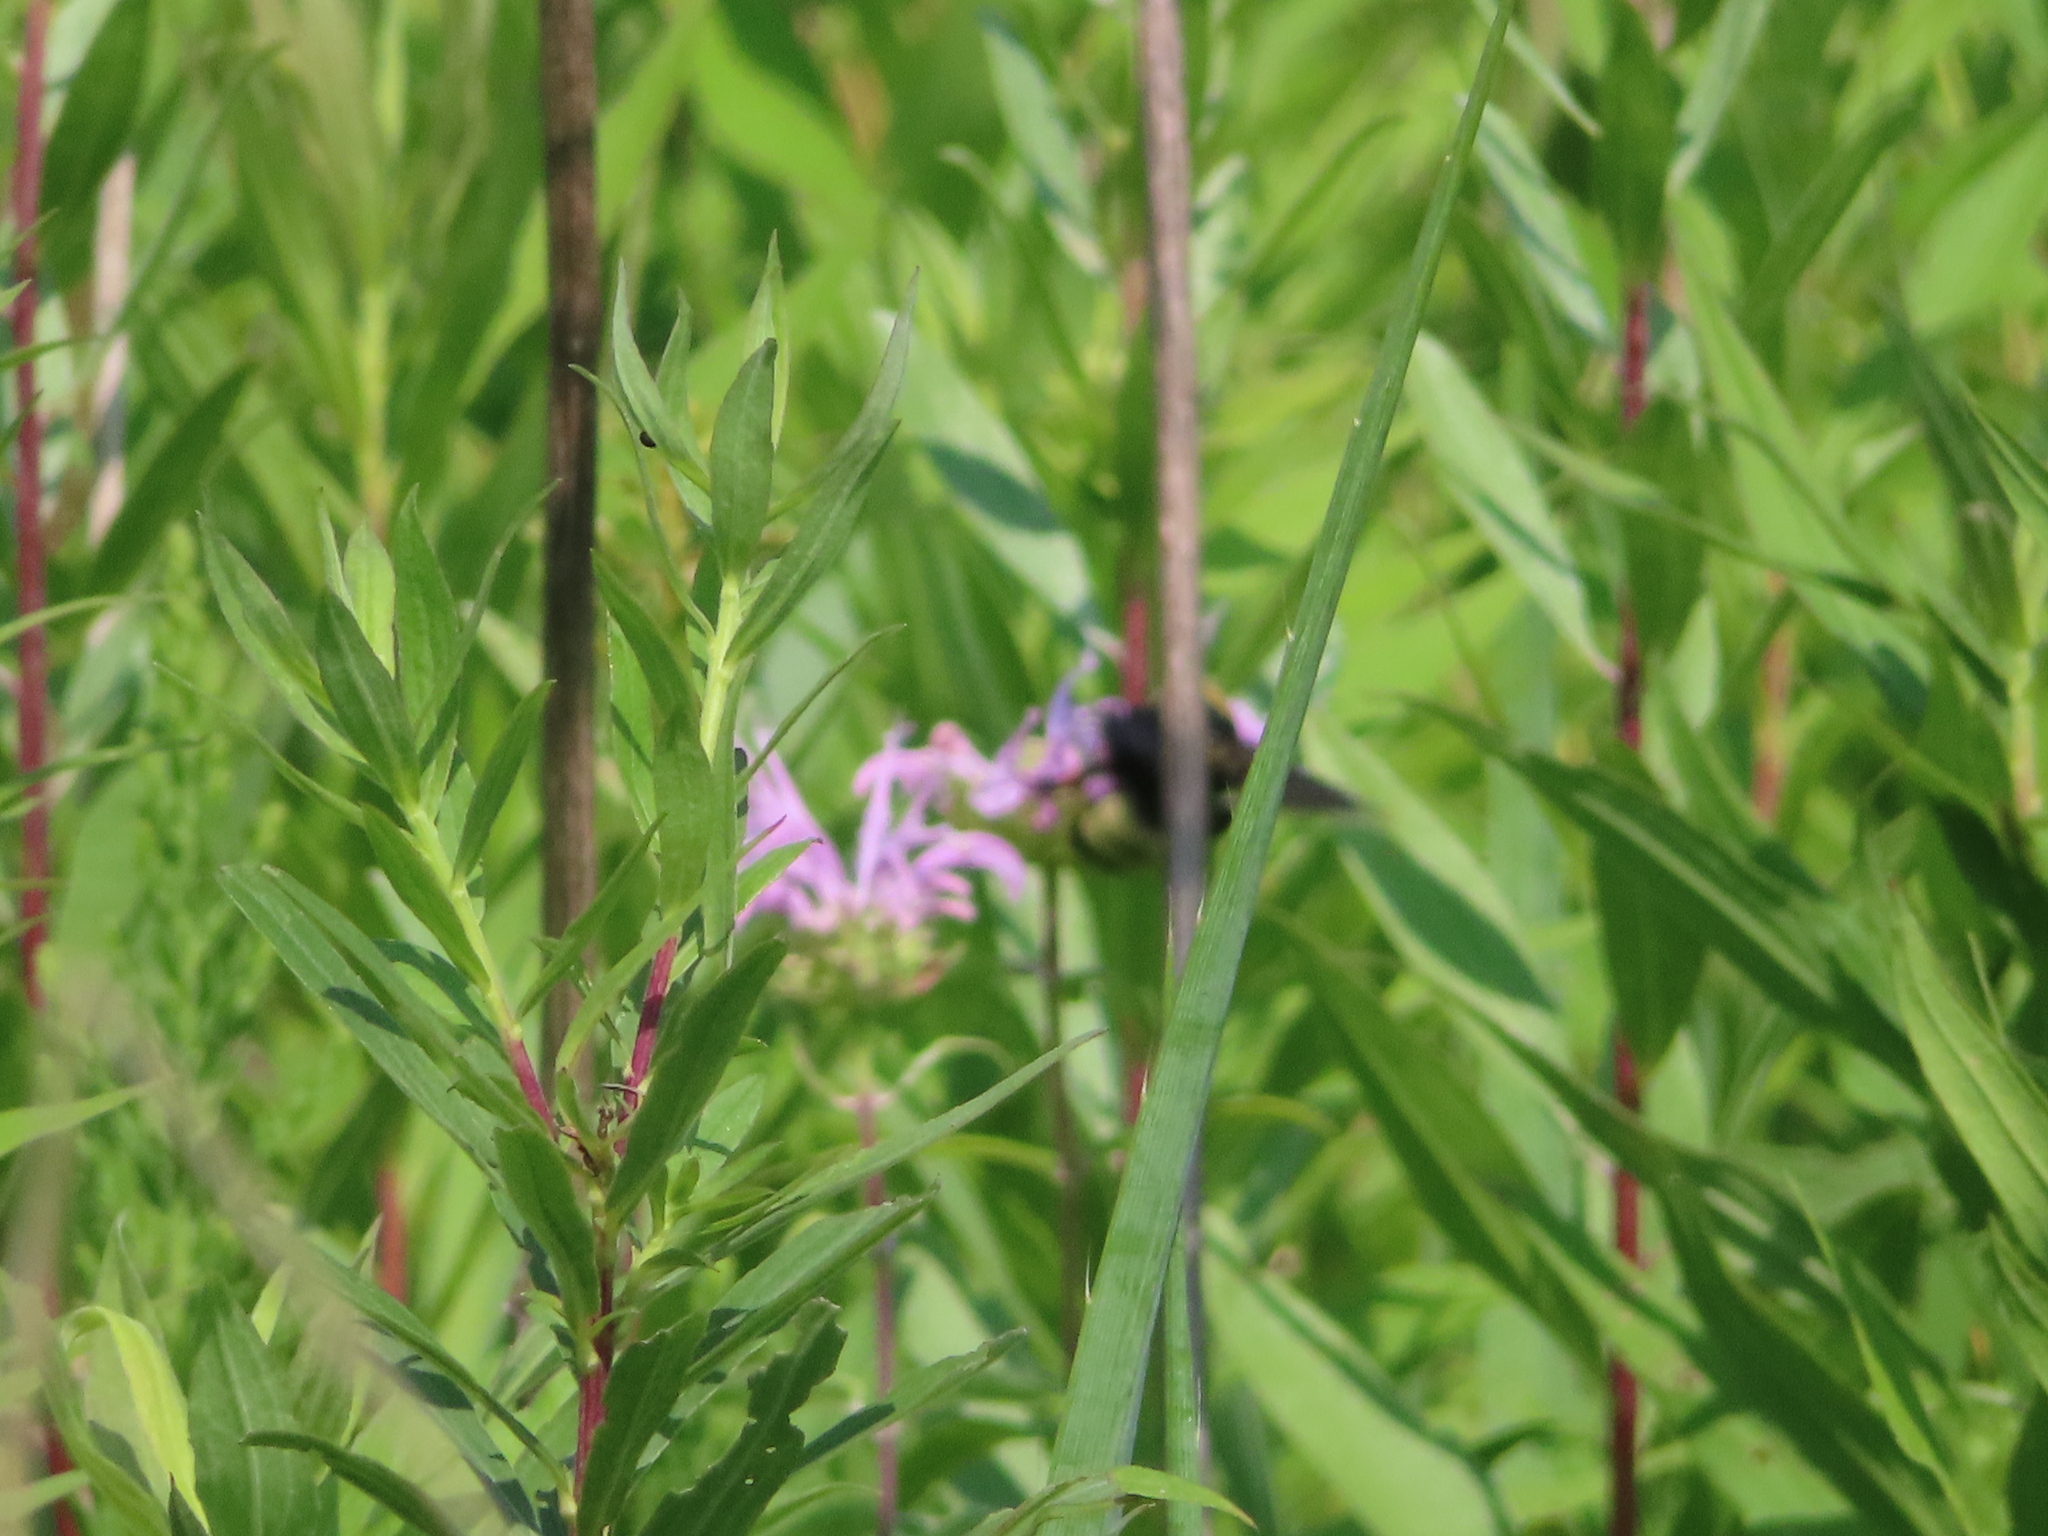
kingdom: Animalia
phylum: Arthropoda
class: Insecta
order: Hymenoptera
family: Apidae
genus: Bombus
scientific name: Bombus auricomus
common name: Black and gold bumble bee
